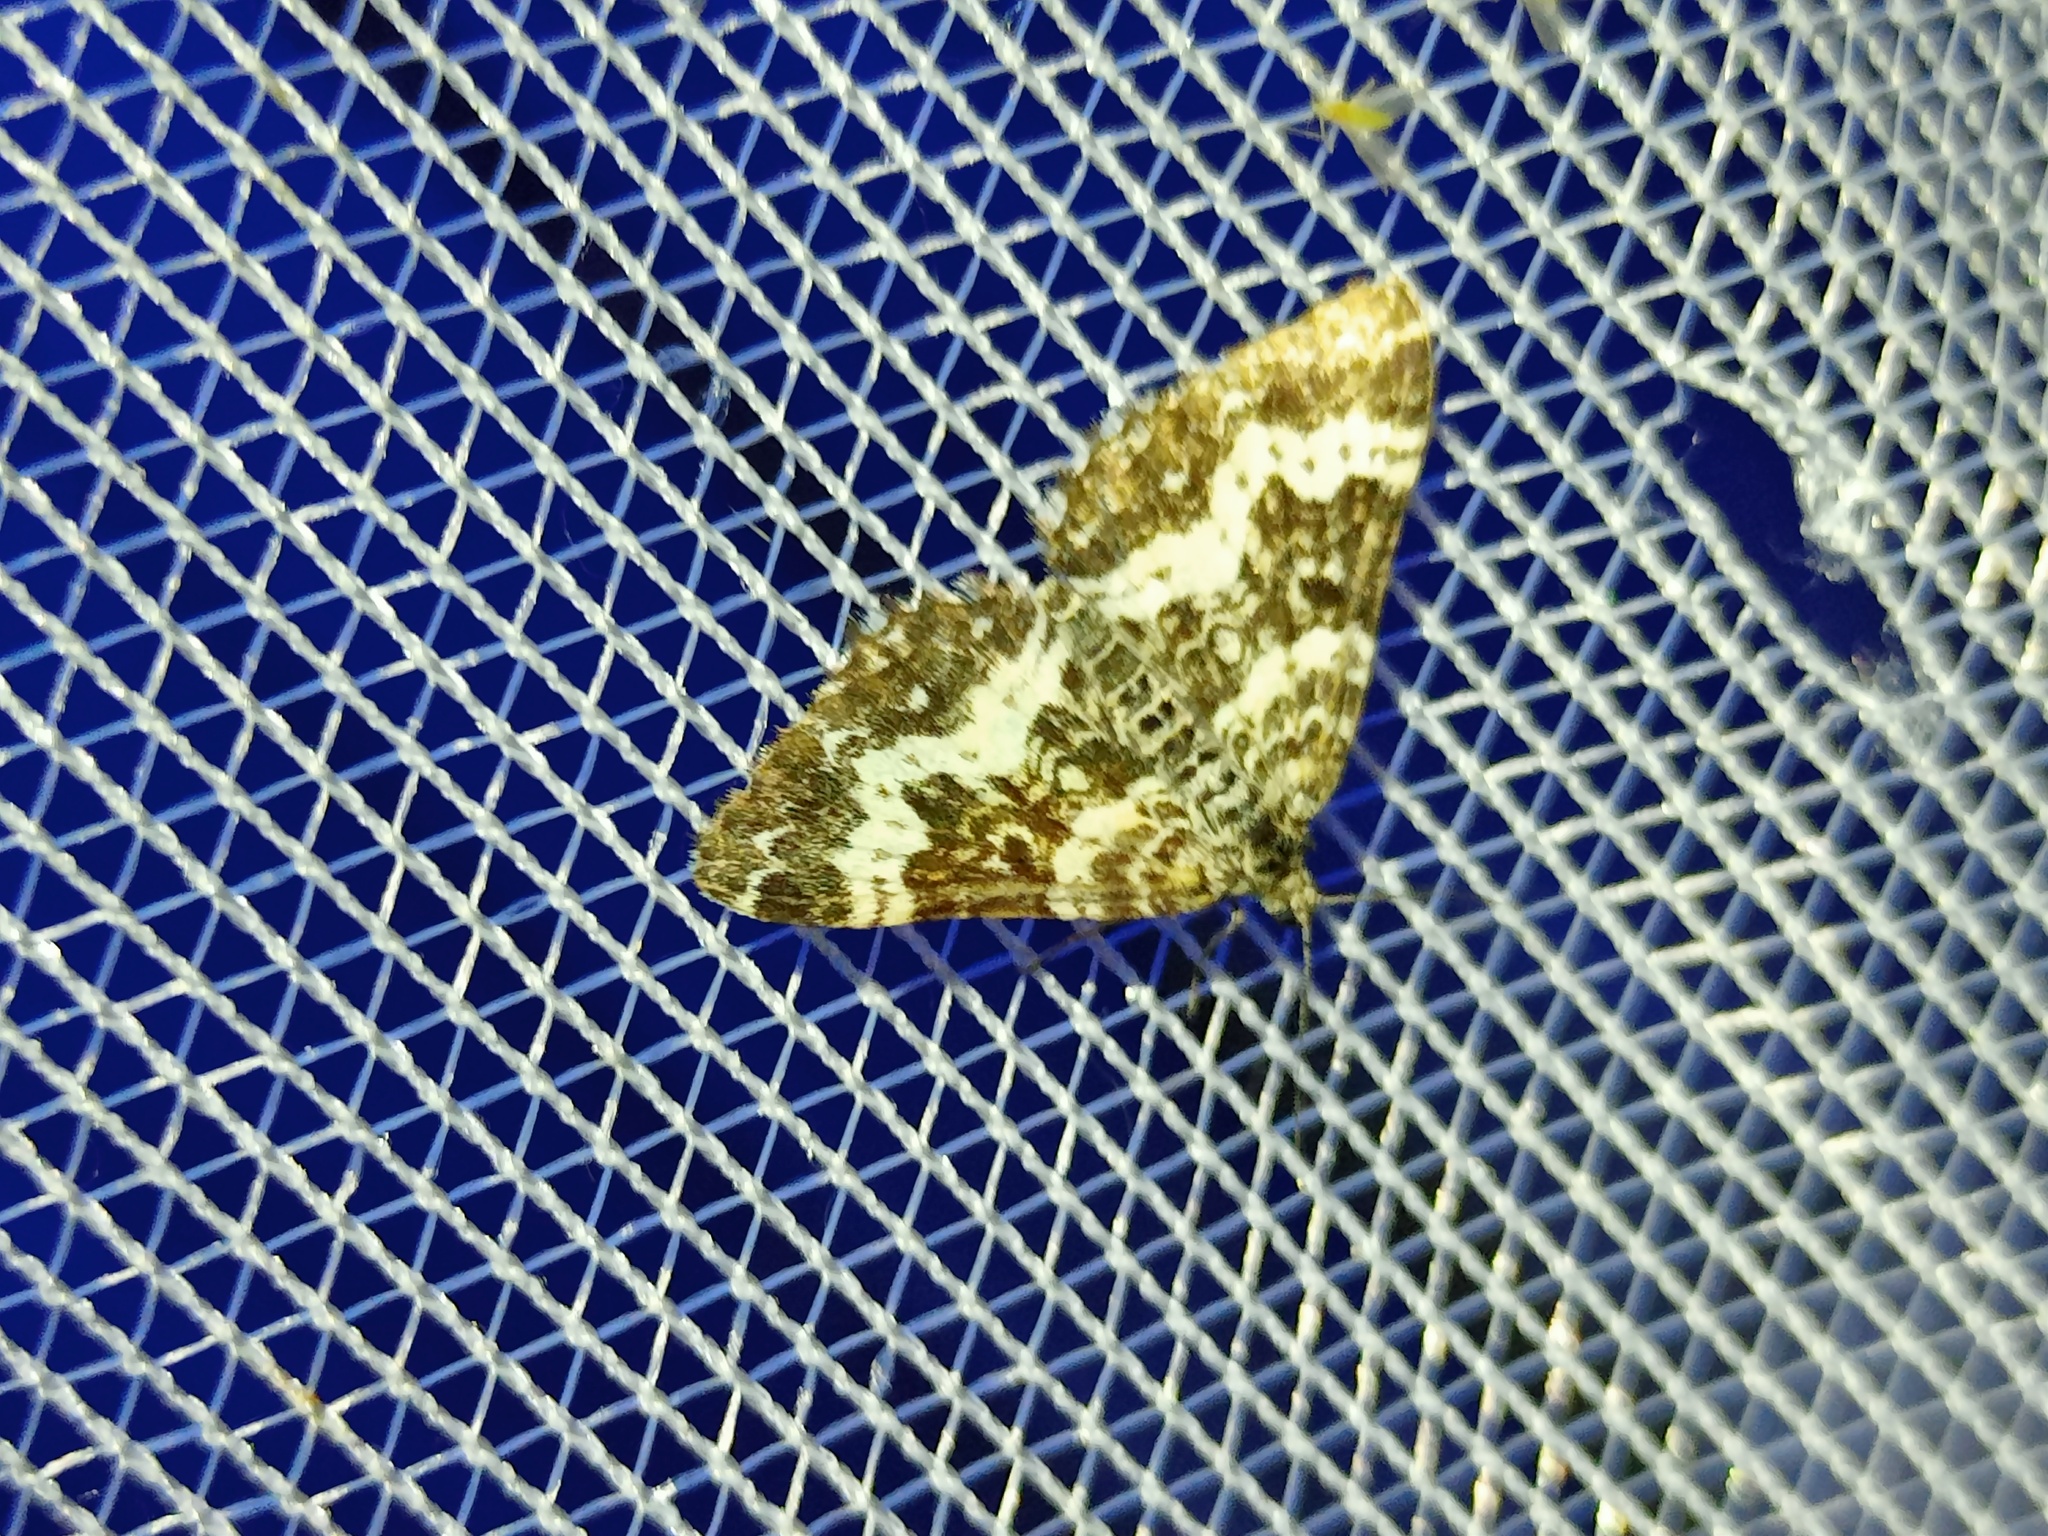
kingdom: Animalia
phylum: Arthropoda
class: Insecta
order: Lepidoptera
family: Geometridae
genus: Epirrhoe
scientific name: Epirrhoe tristata
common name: Small argent & sable
